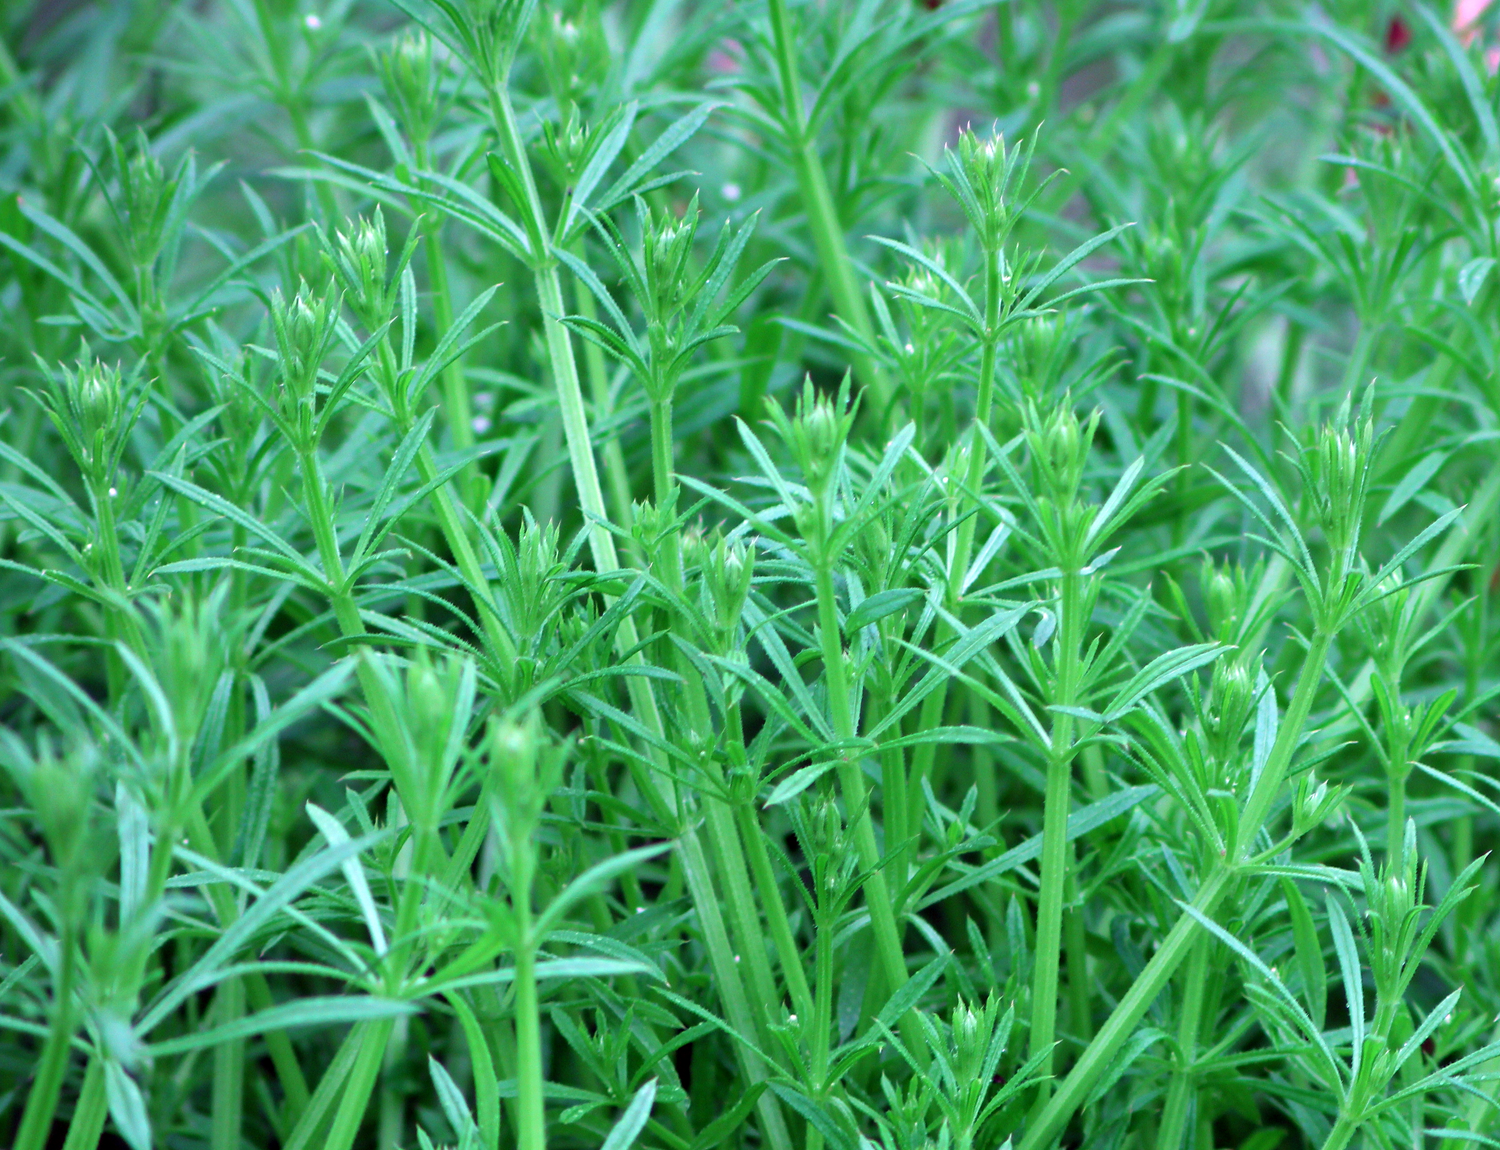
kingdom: Plantae
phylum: Tracheophyta
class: Magnoliopsida
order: Gentianales
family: Rubiaceae
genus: Galium
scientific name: Galium aparine
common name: Cleavers
